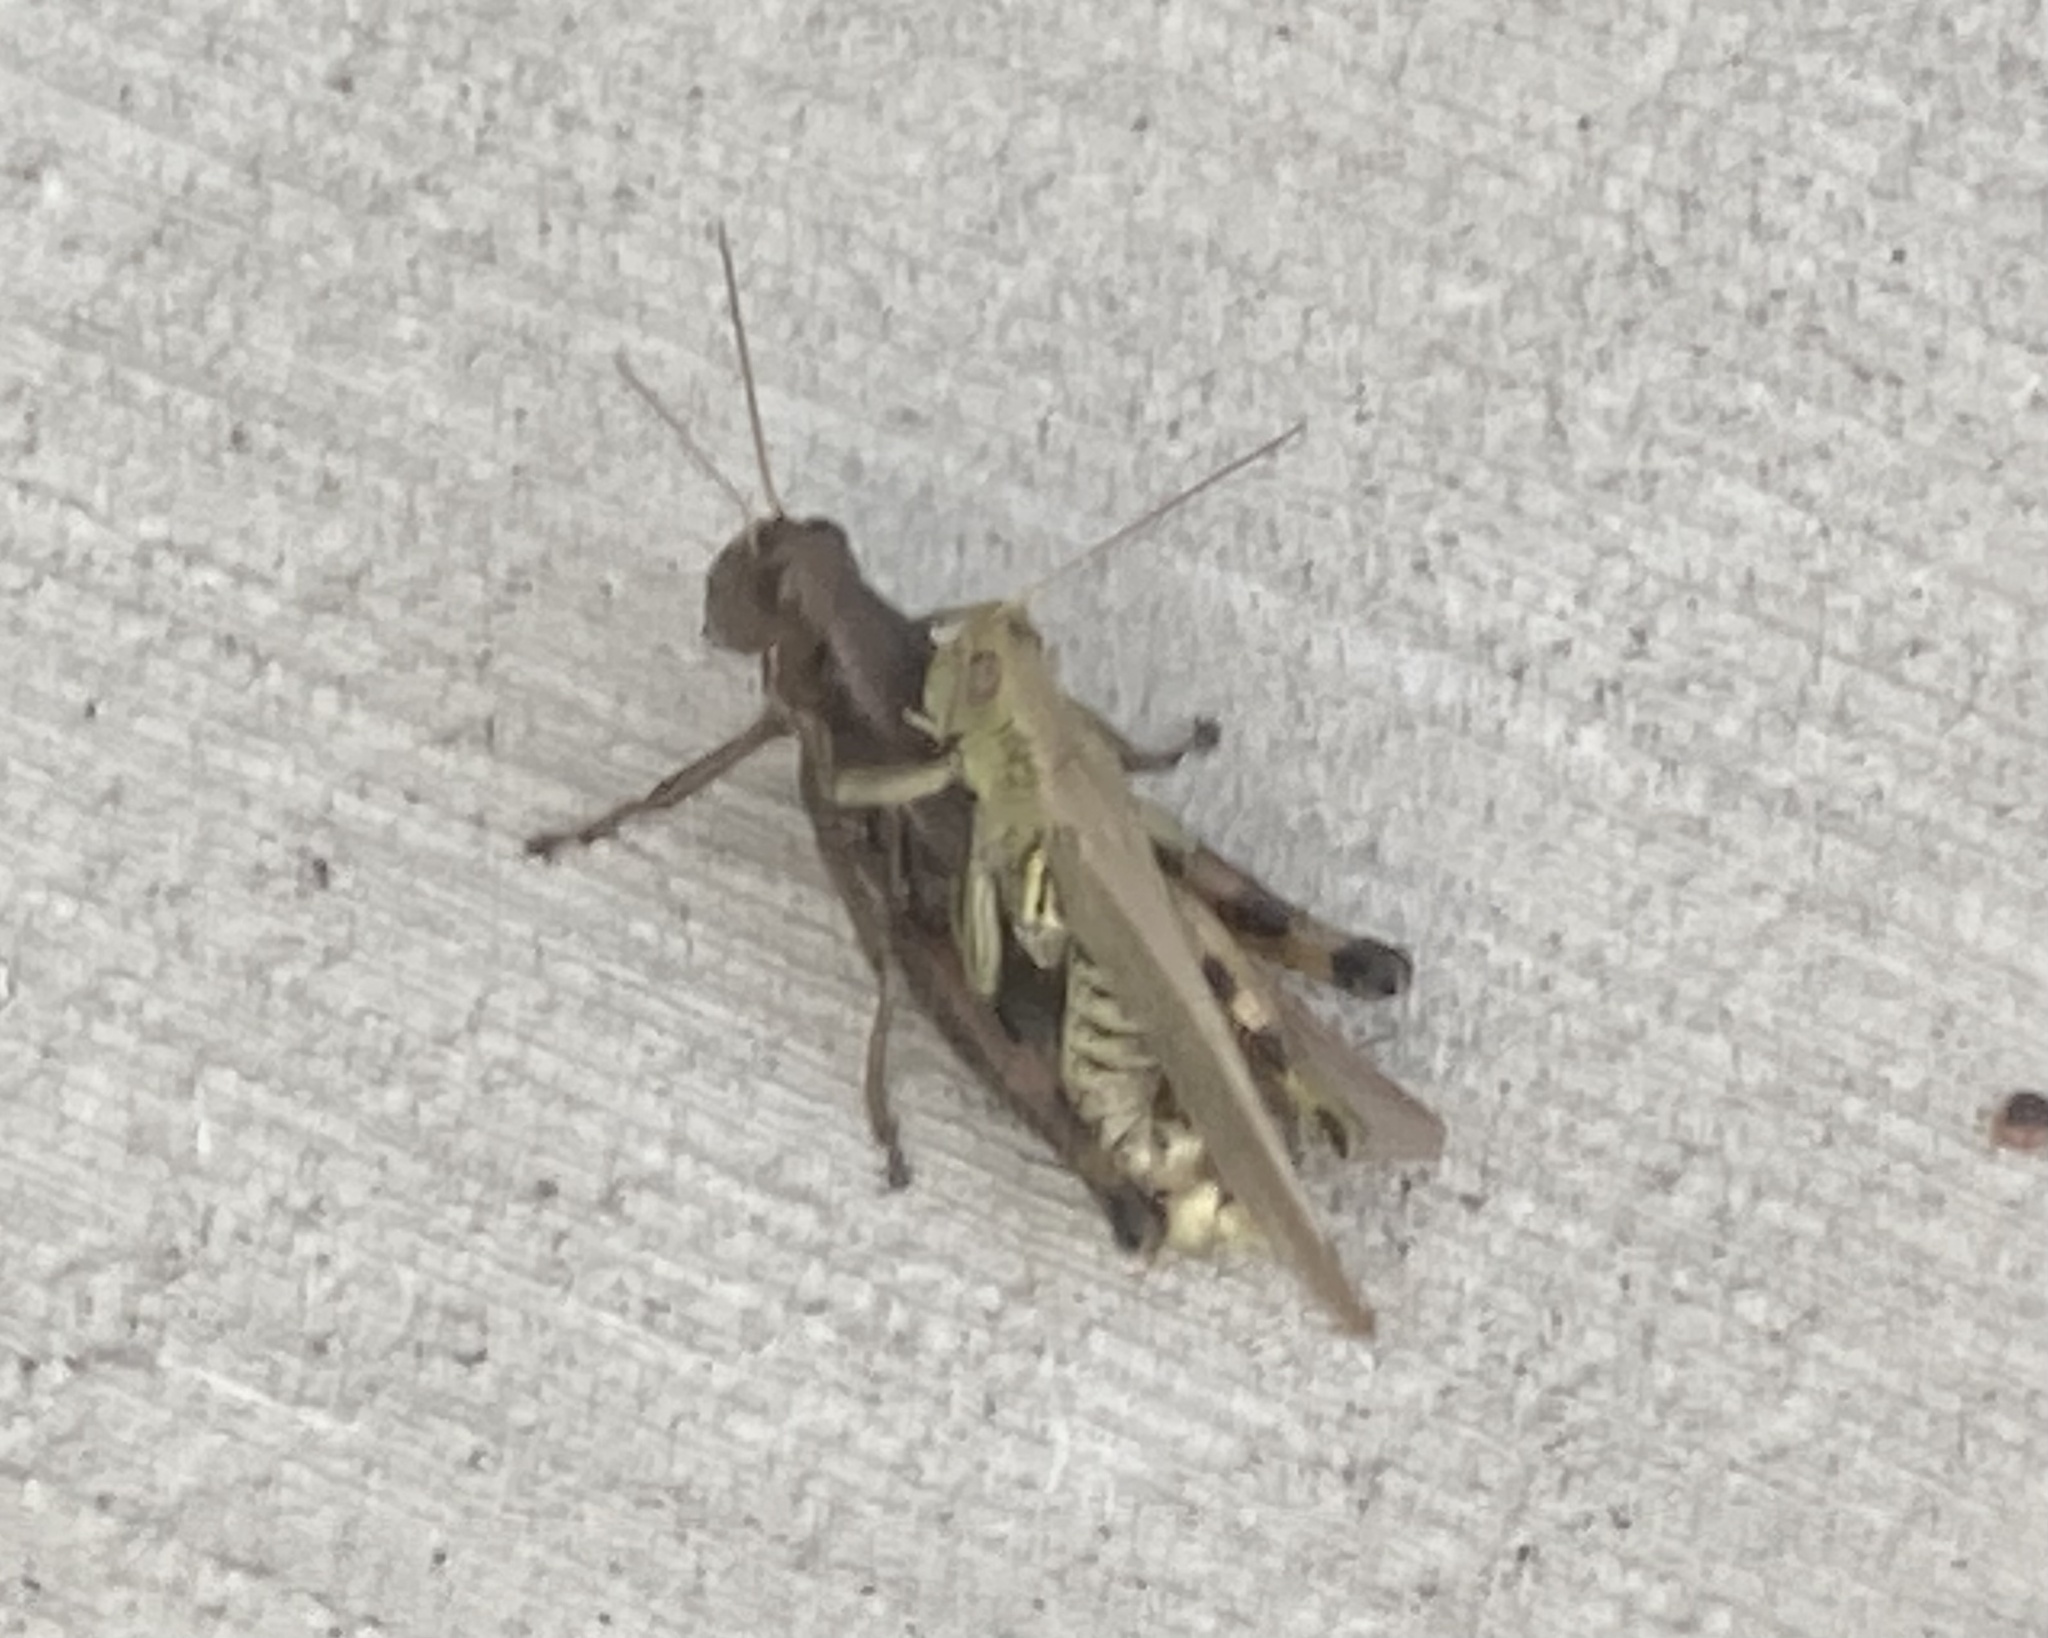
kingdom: Animalia
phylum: Arthropoda
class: Insecta
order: Orthoptera
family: Acrididae
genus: Melanoplus
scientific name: Melanoplus differentialis
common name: Differential grasshopper
